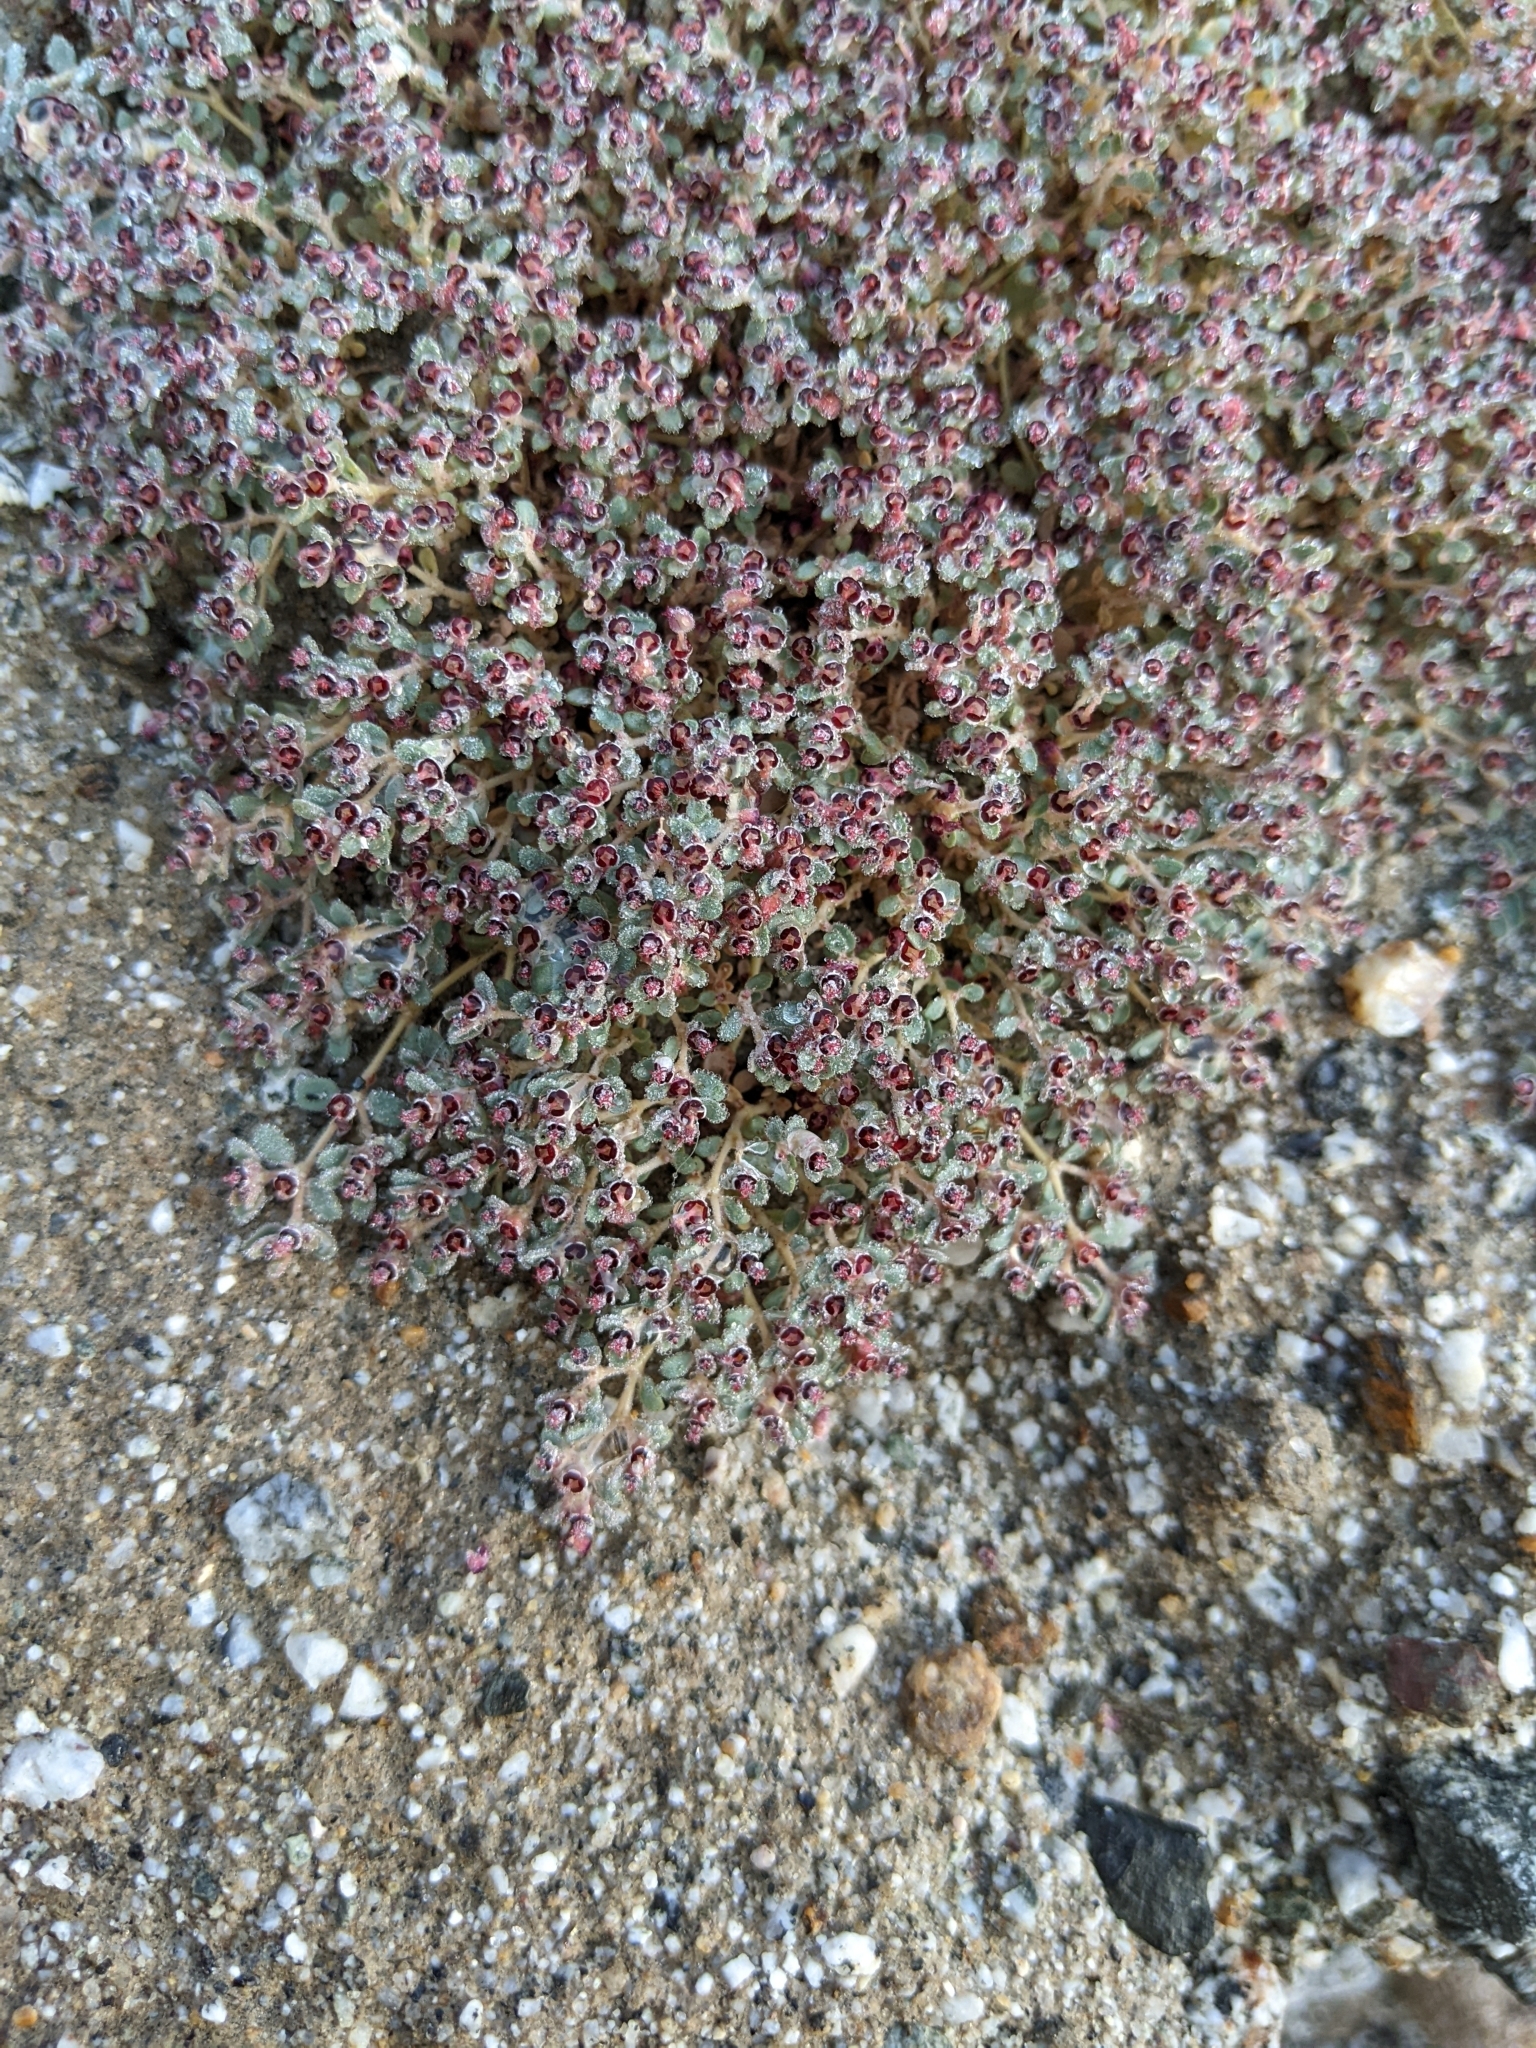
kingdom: Plantae
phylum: Tracheophyta
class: Magnoliopsida
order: Malpighiales
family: Euphorbiaceae
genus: Euphorbia
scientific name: Euphorbia polycarpa
